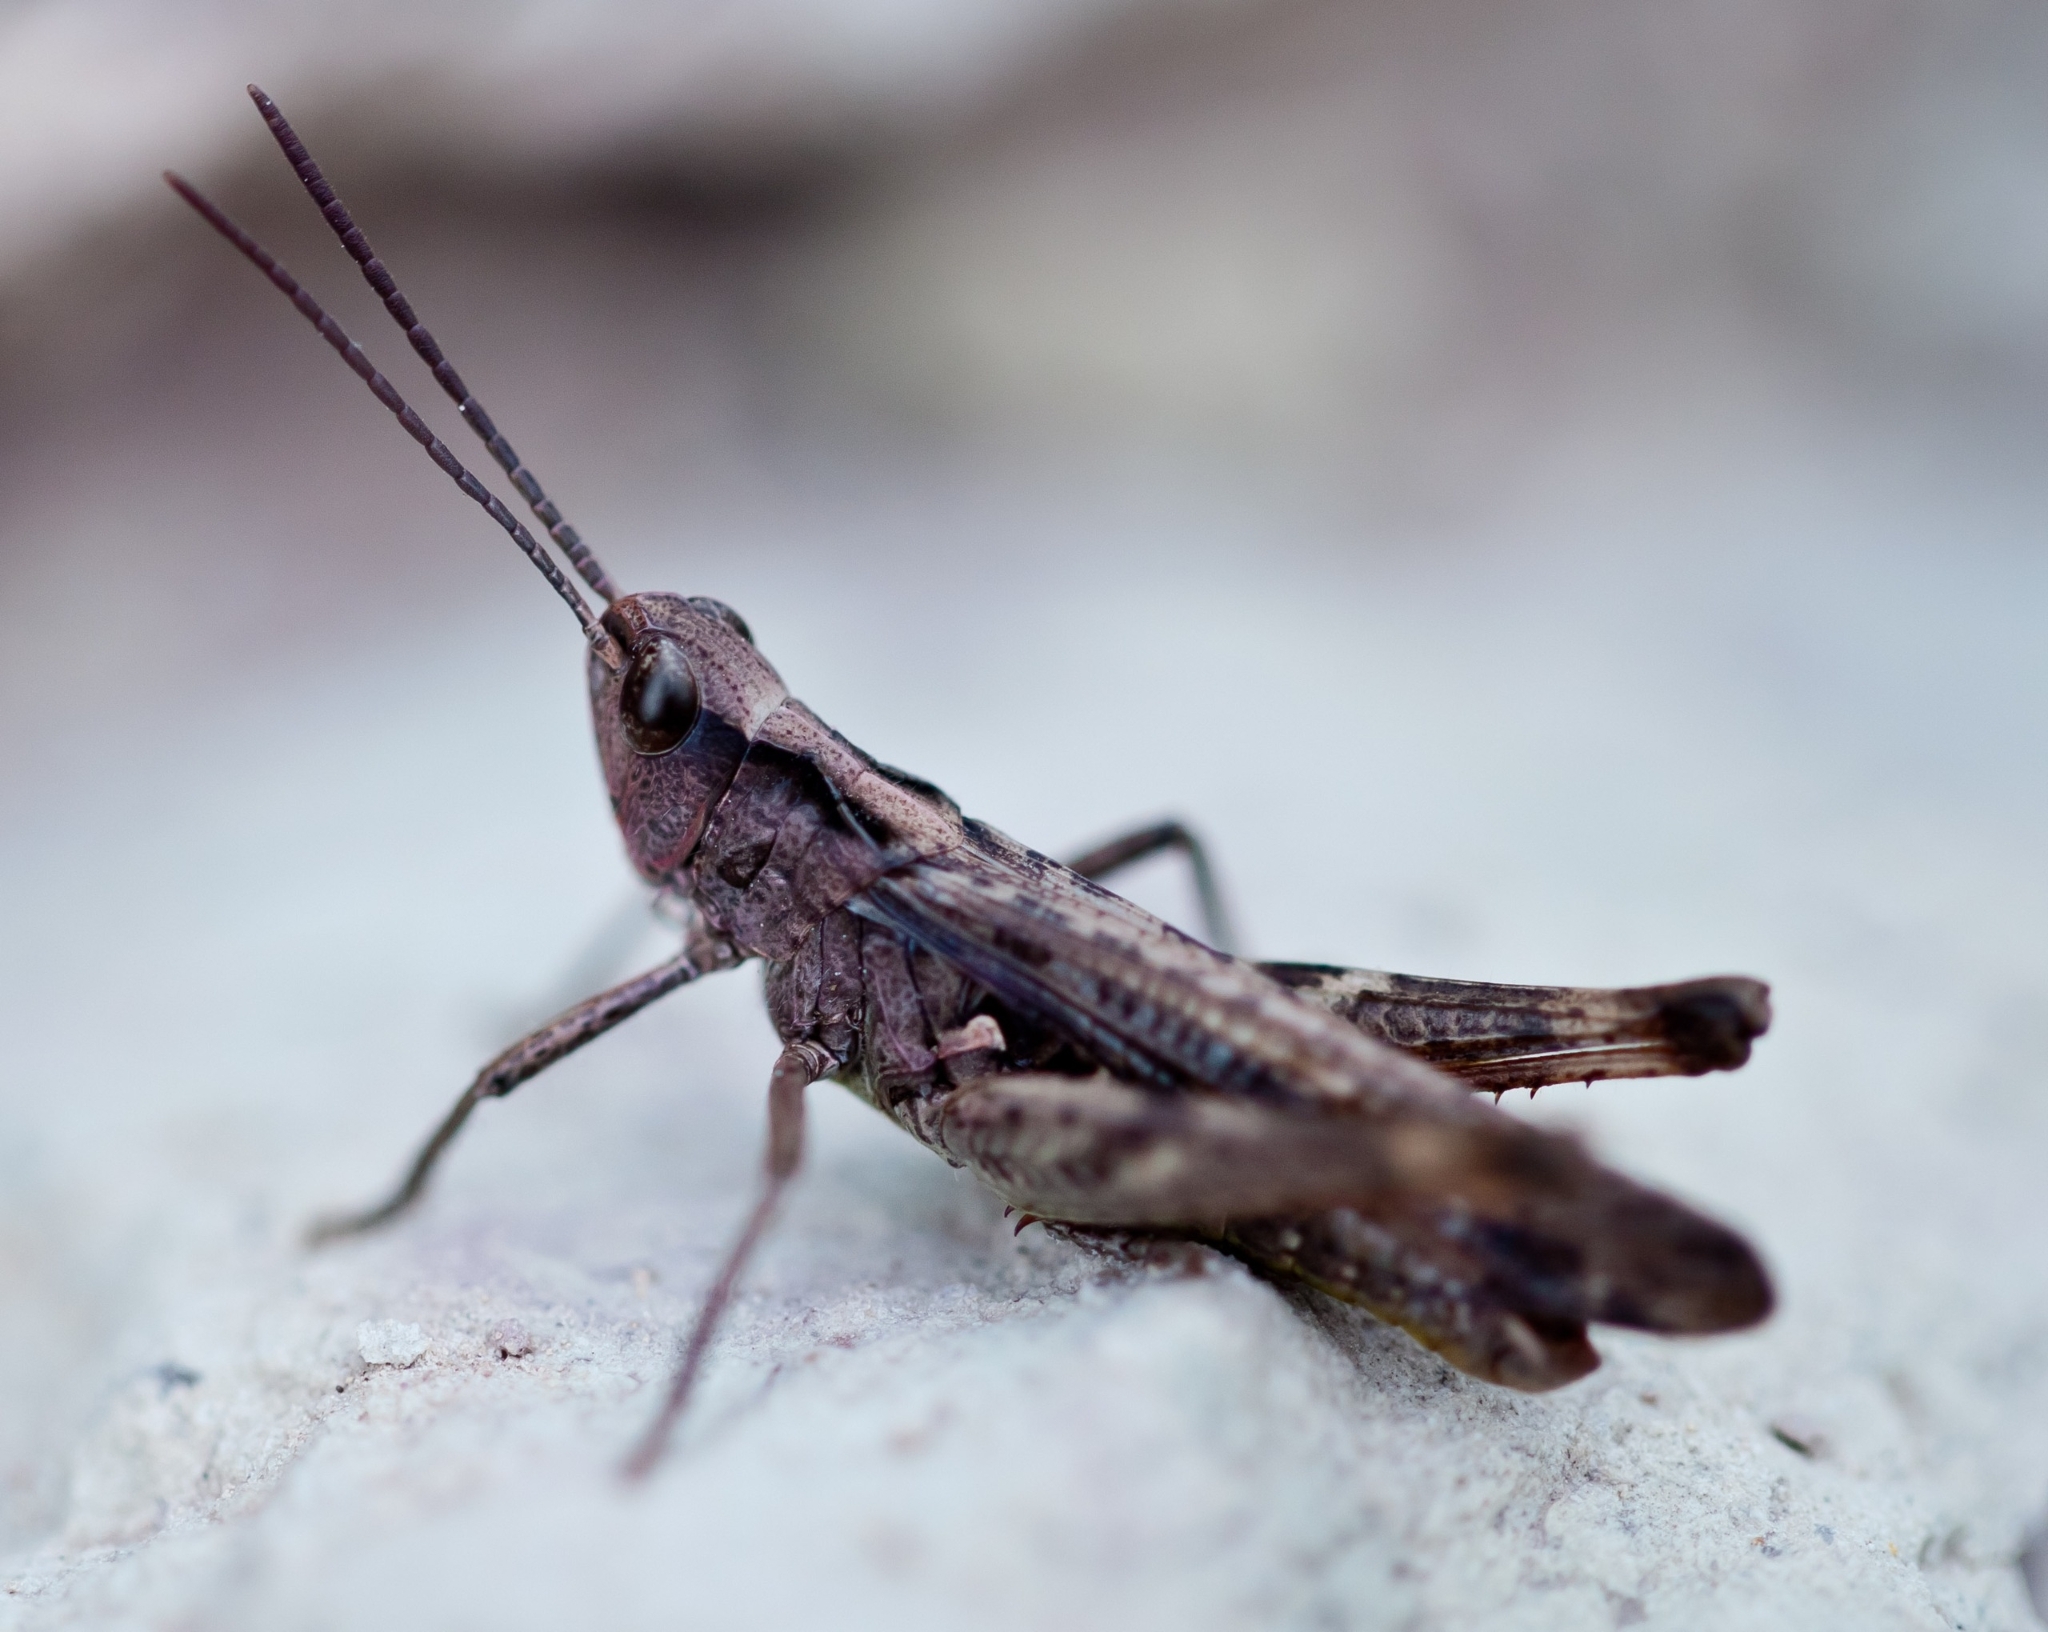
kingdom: Animalia
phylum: Arthropoda
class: Insecta
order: Orthoptera
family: Acrididae
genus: Chorthippus
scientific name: Chorthippus brunneus
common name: Field grasshopper
